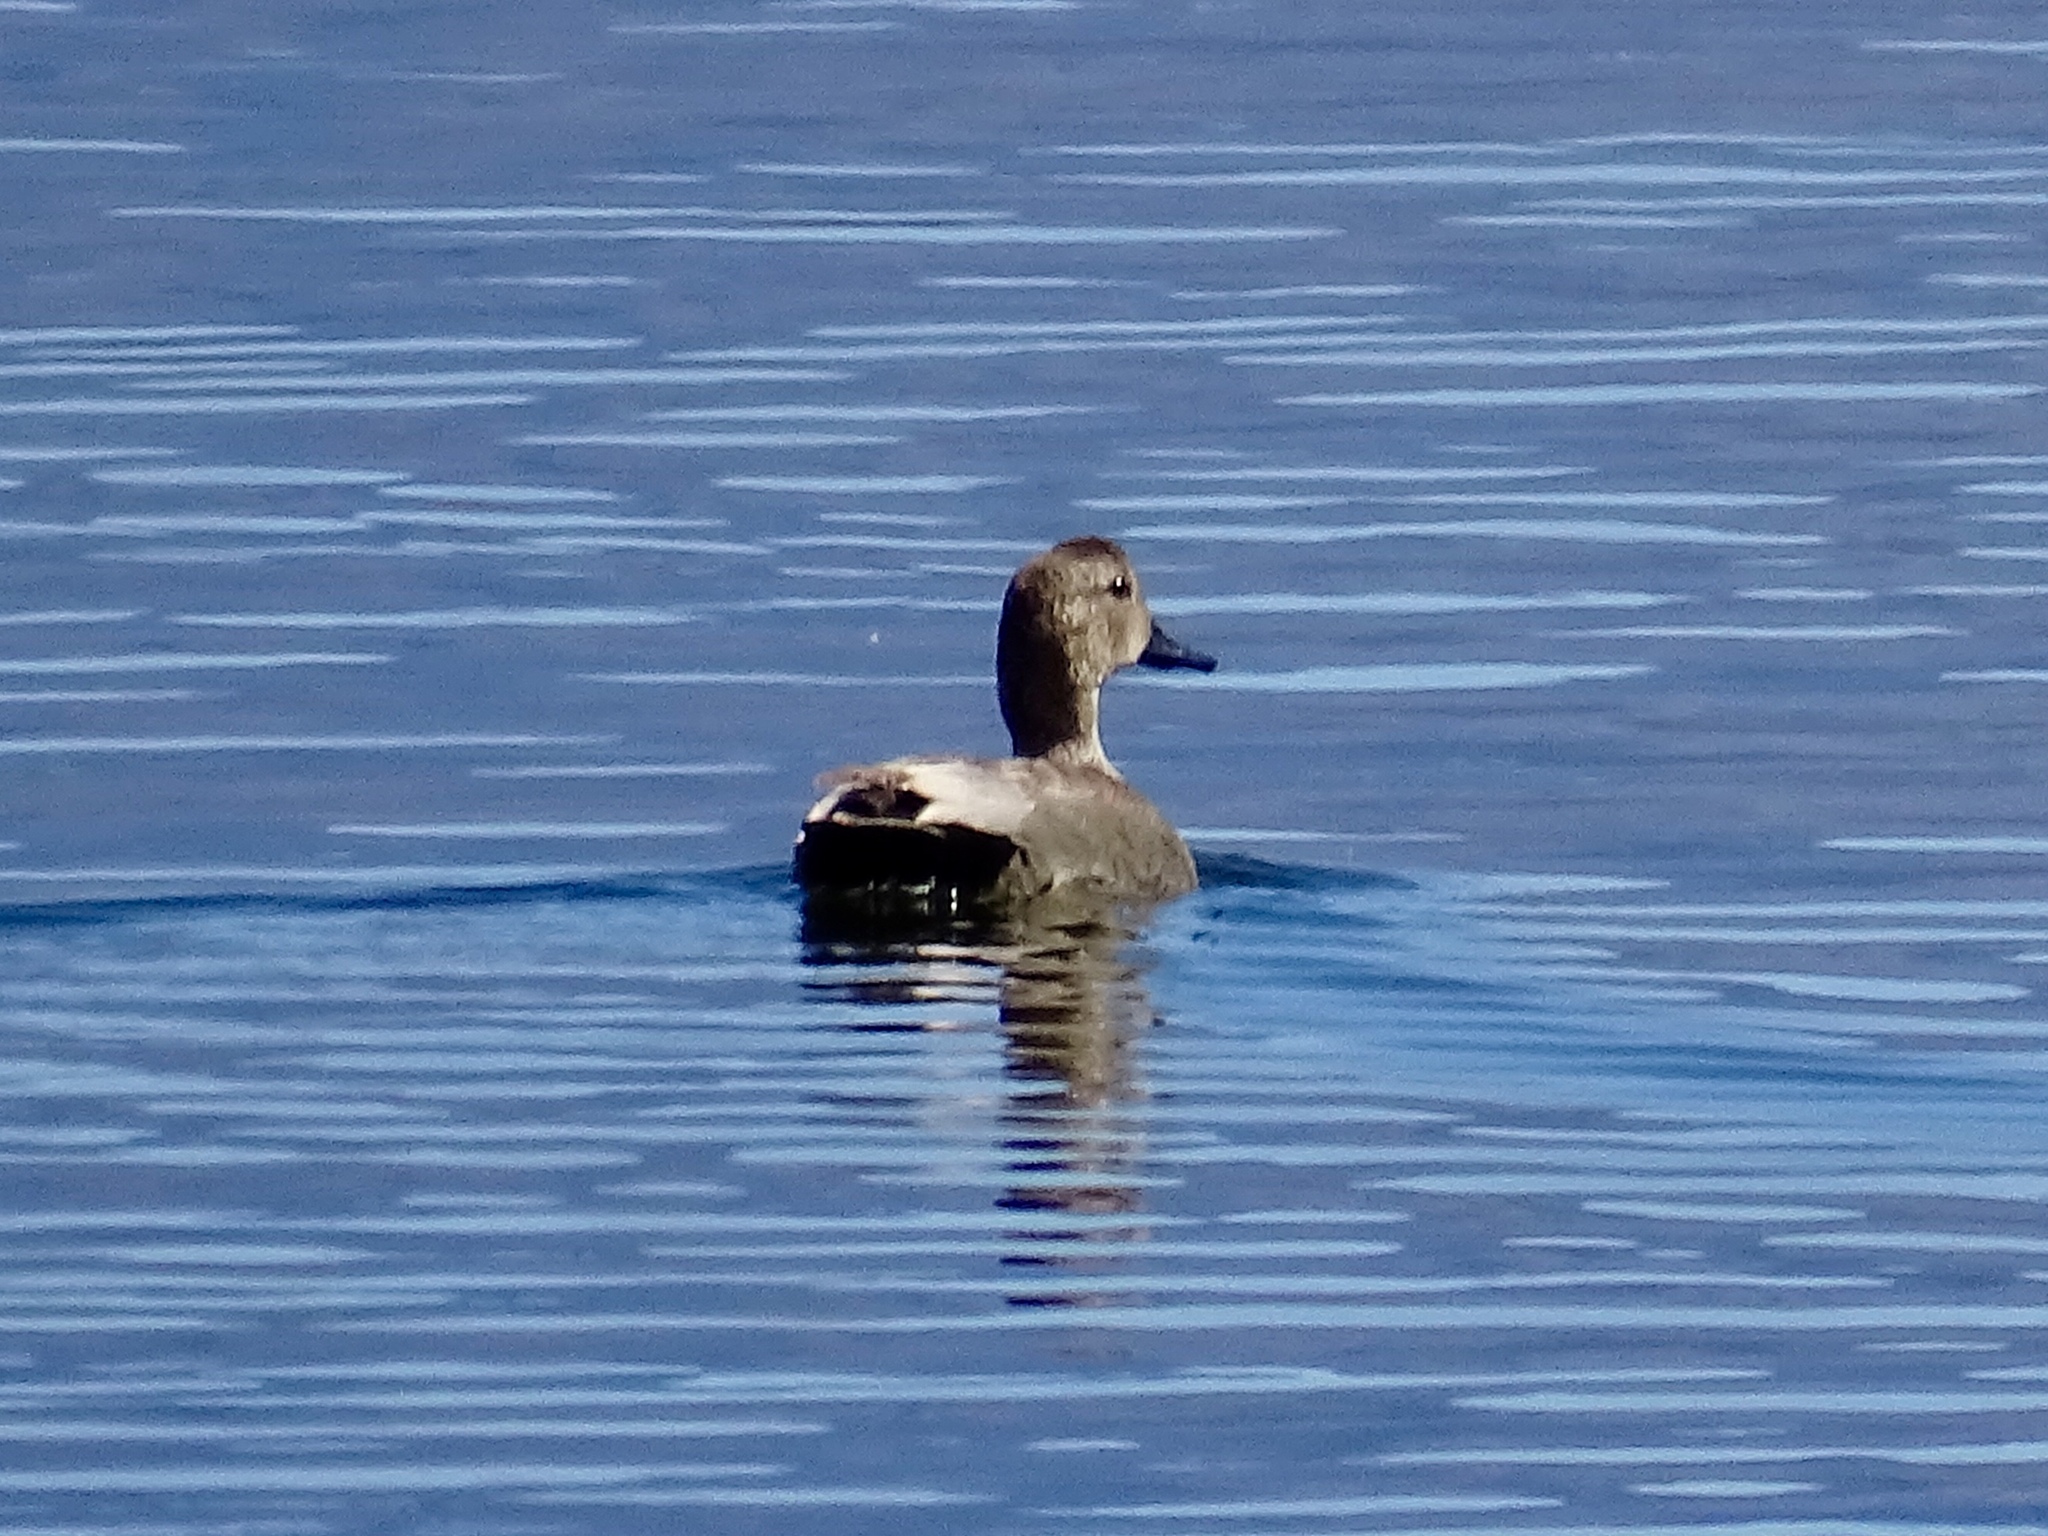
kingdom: Animalia
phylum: Chordata
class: Aves
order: Anseriformes
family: Anatidae
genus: Mareca
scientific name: Mareca strepera
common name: Gadwall
